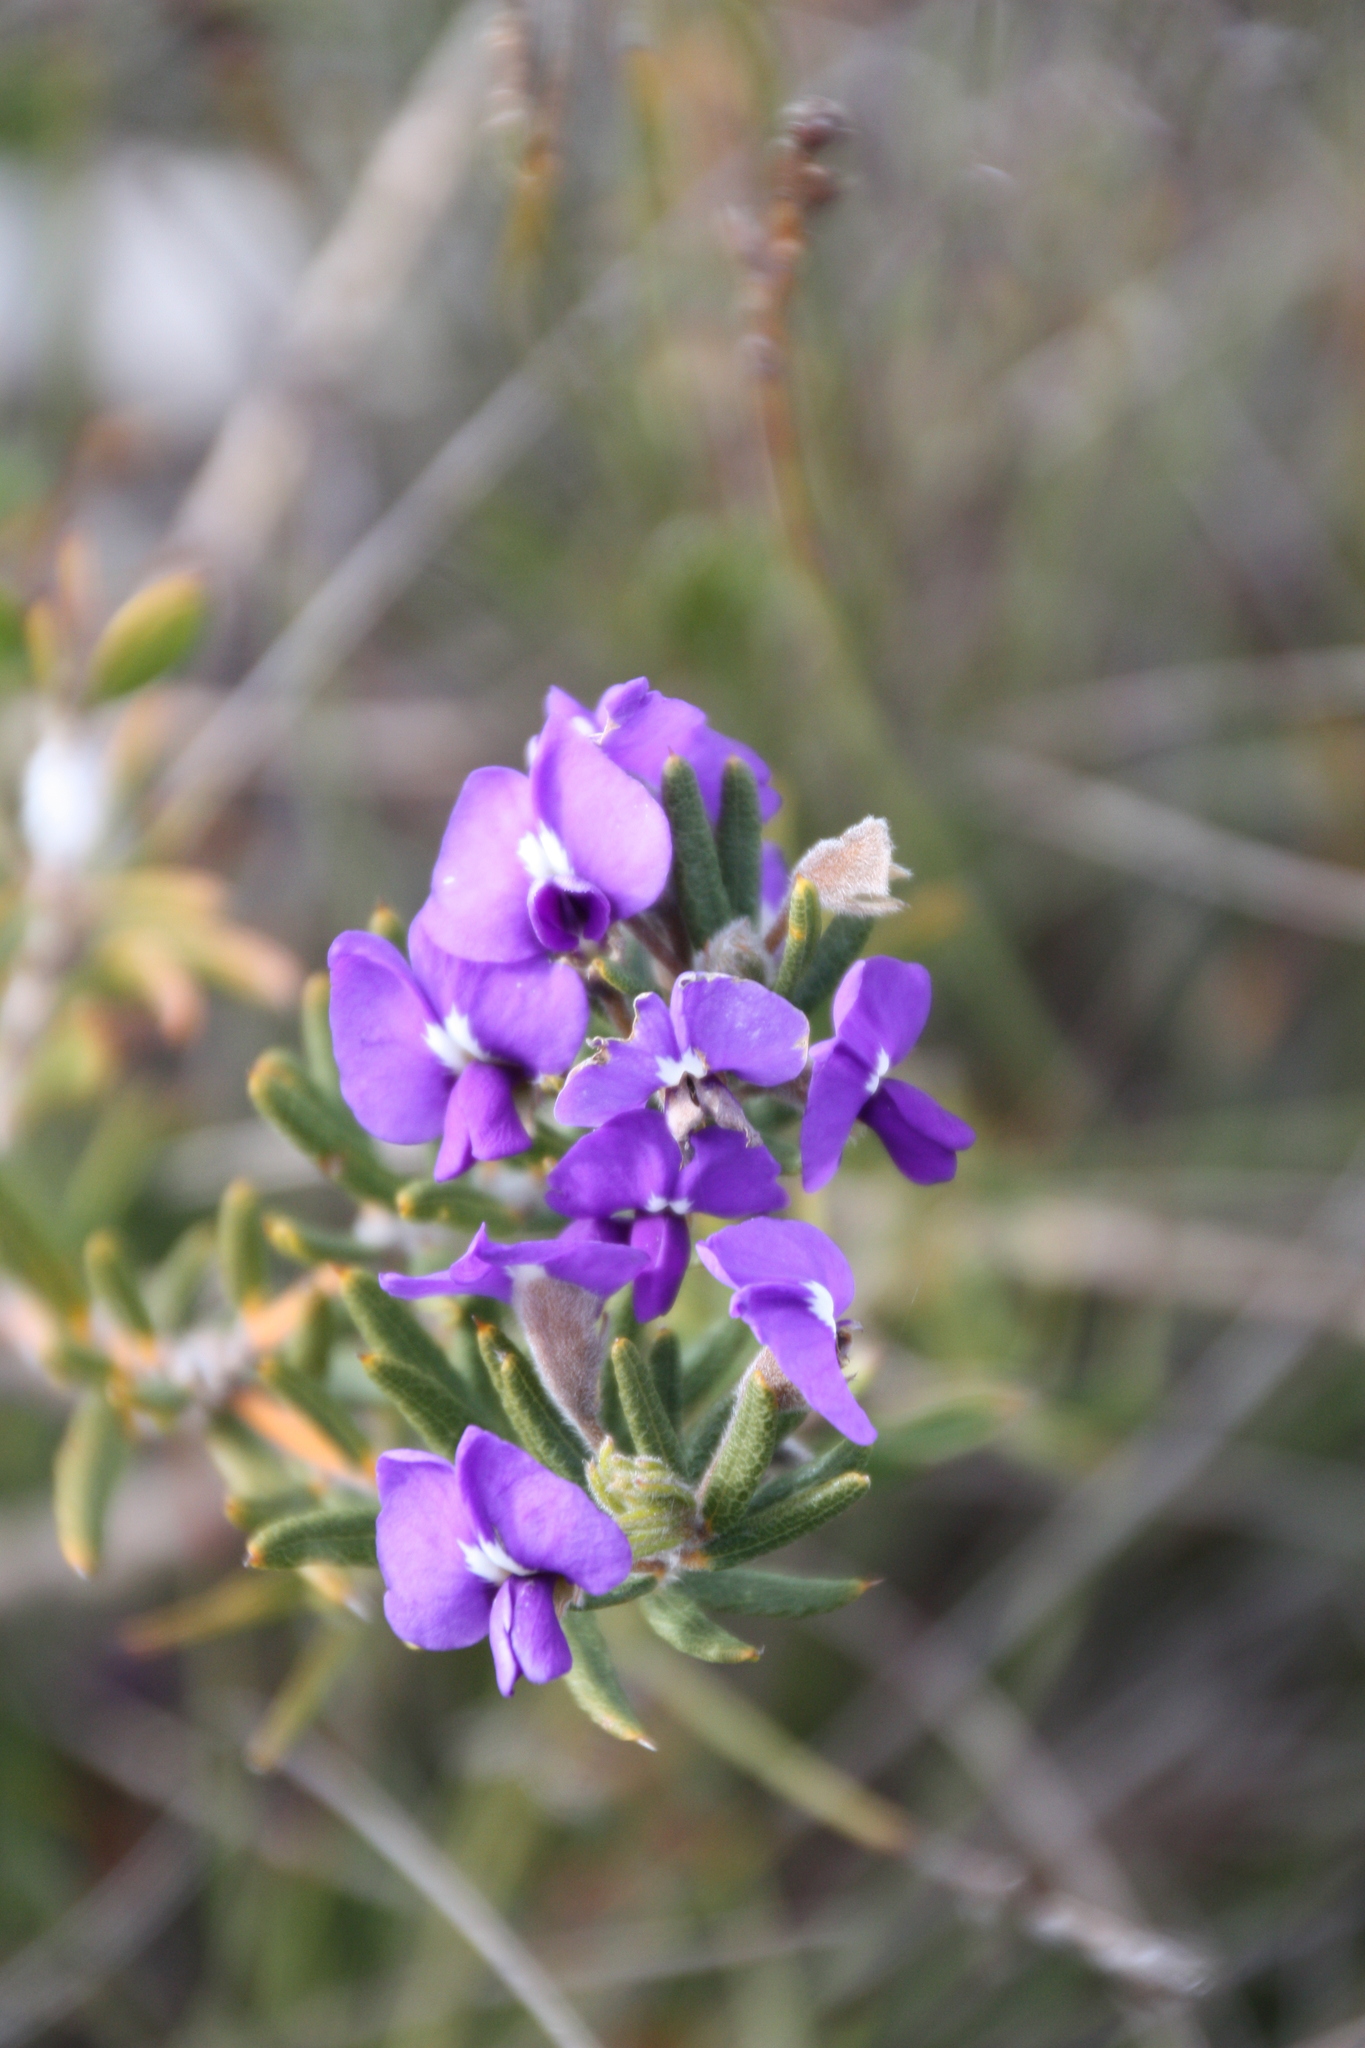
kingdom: Plantae
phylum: Tracheophyta
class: Magnoliopsida
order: Fabales
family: Fabaceae
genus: Hovea
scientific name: Hovea stricta
